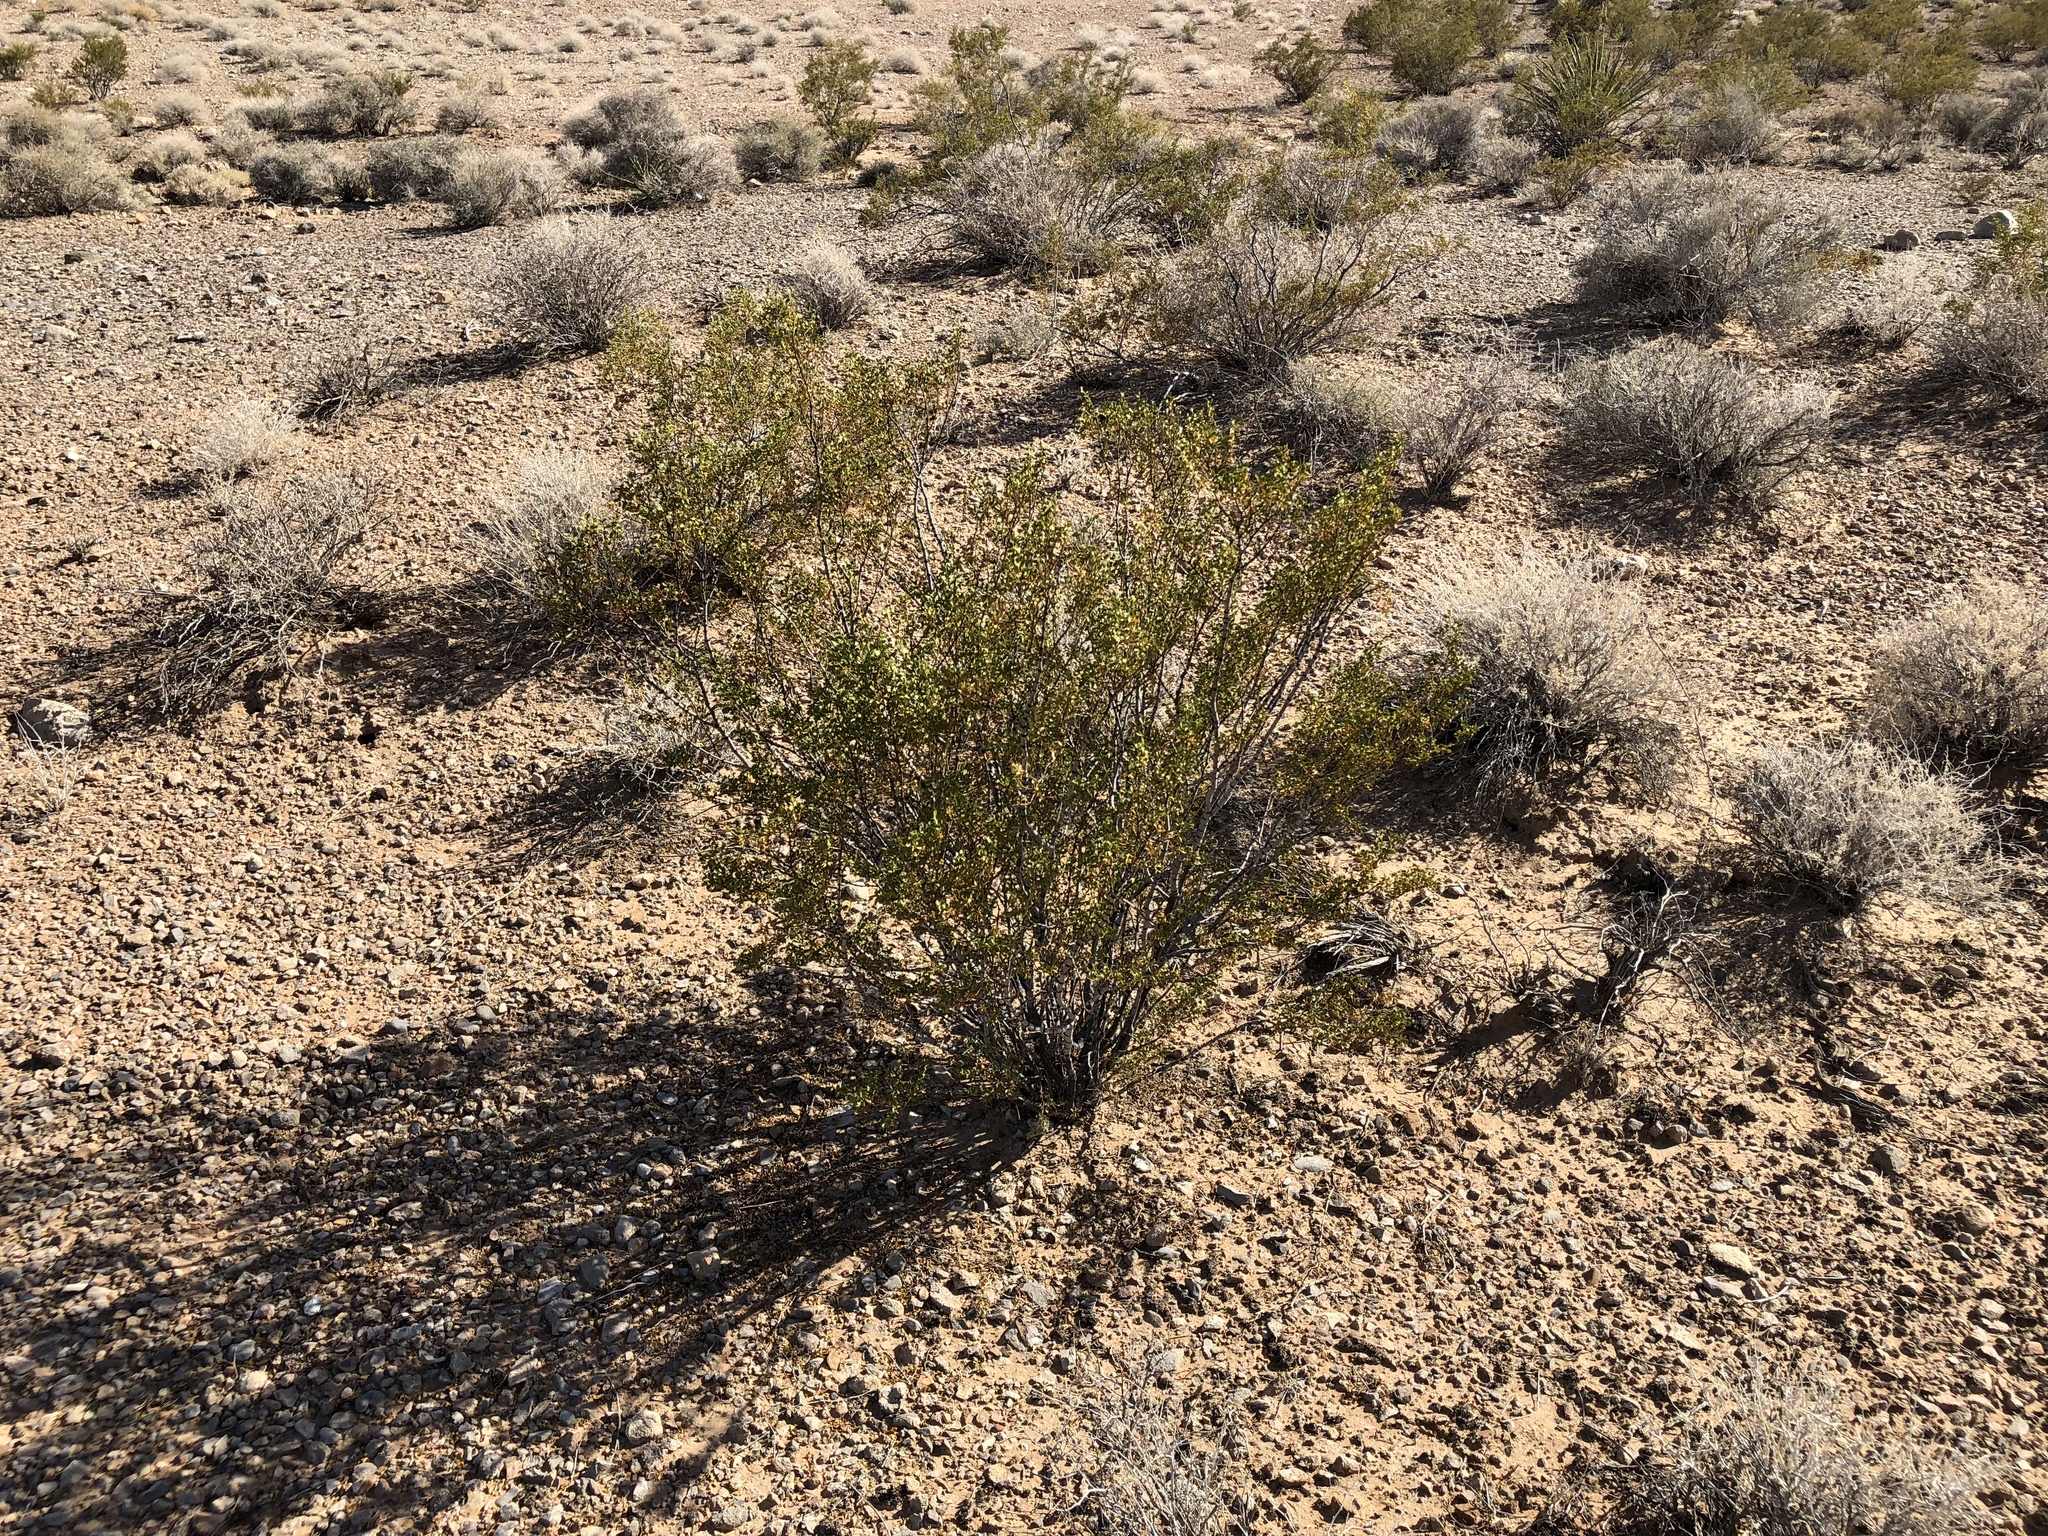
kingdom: Plantae
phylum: Tracheophyta
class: Magnoliopsida
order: Zygophyllales
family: Zygophyllaceae
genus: Larrea
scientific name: Larrea tridentata
